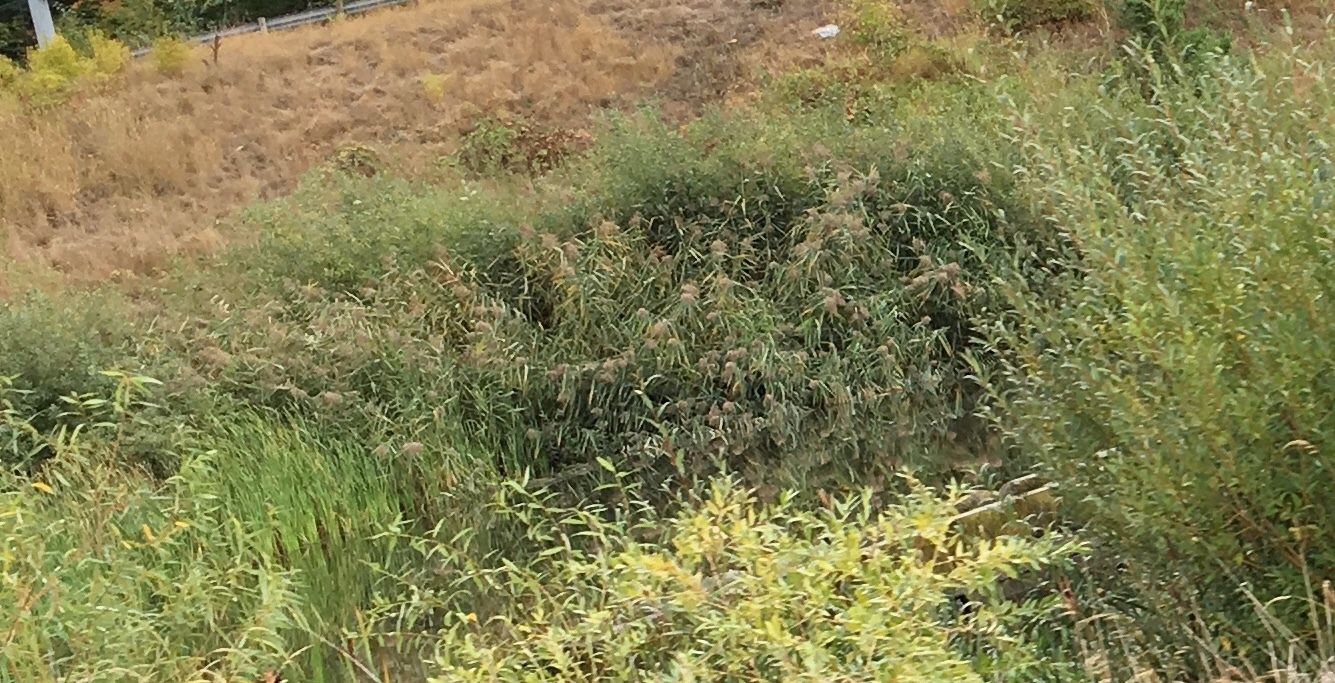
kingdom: Plantae
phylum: Tracheophyta
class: Liliopsida
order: Poales
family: Poaceae
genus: Phragmites
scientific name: Phragmites australis
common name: Common reed
